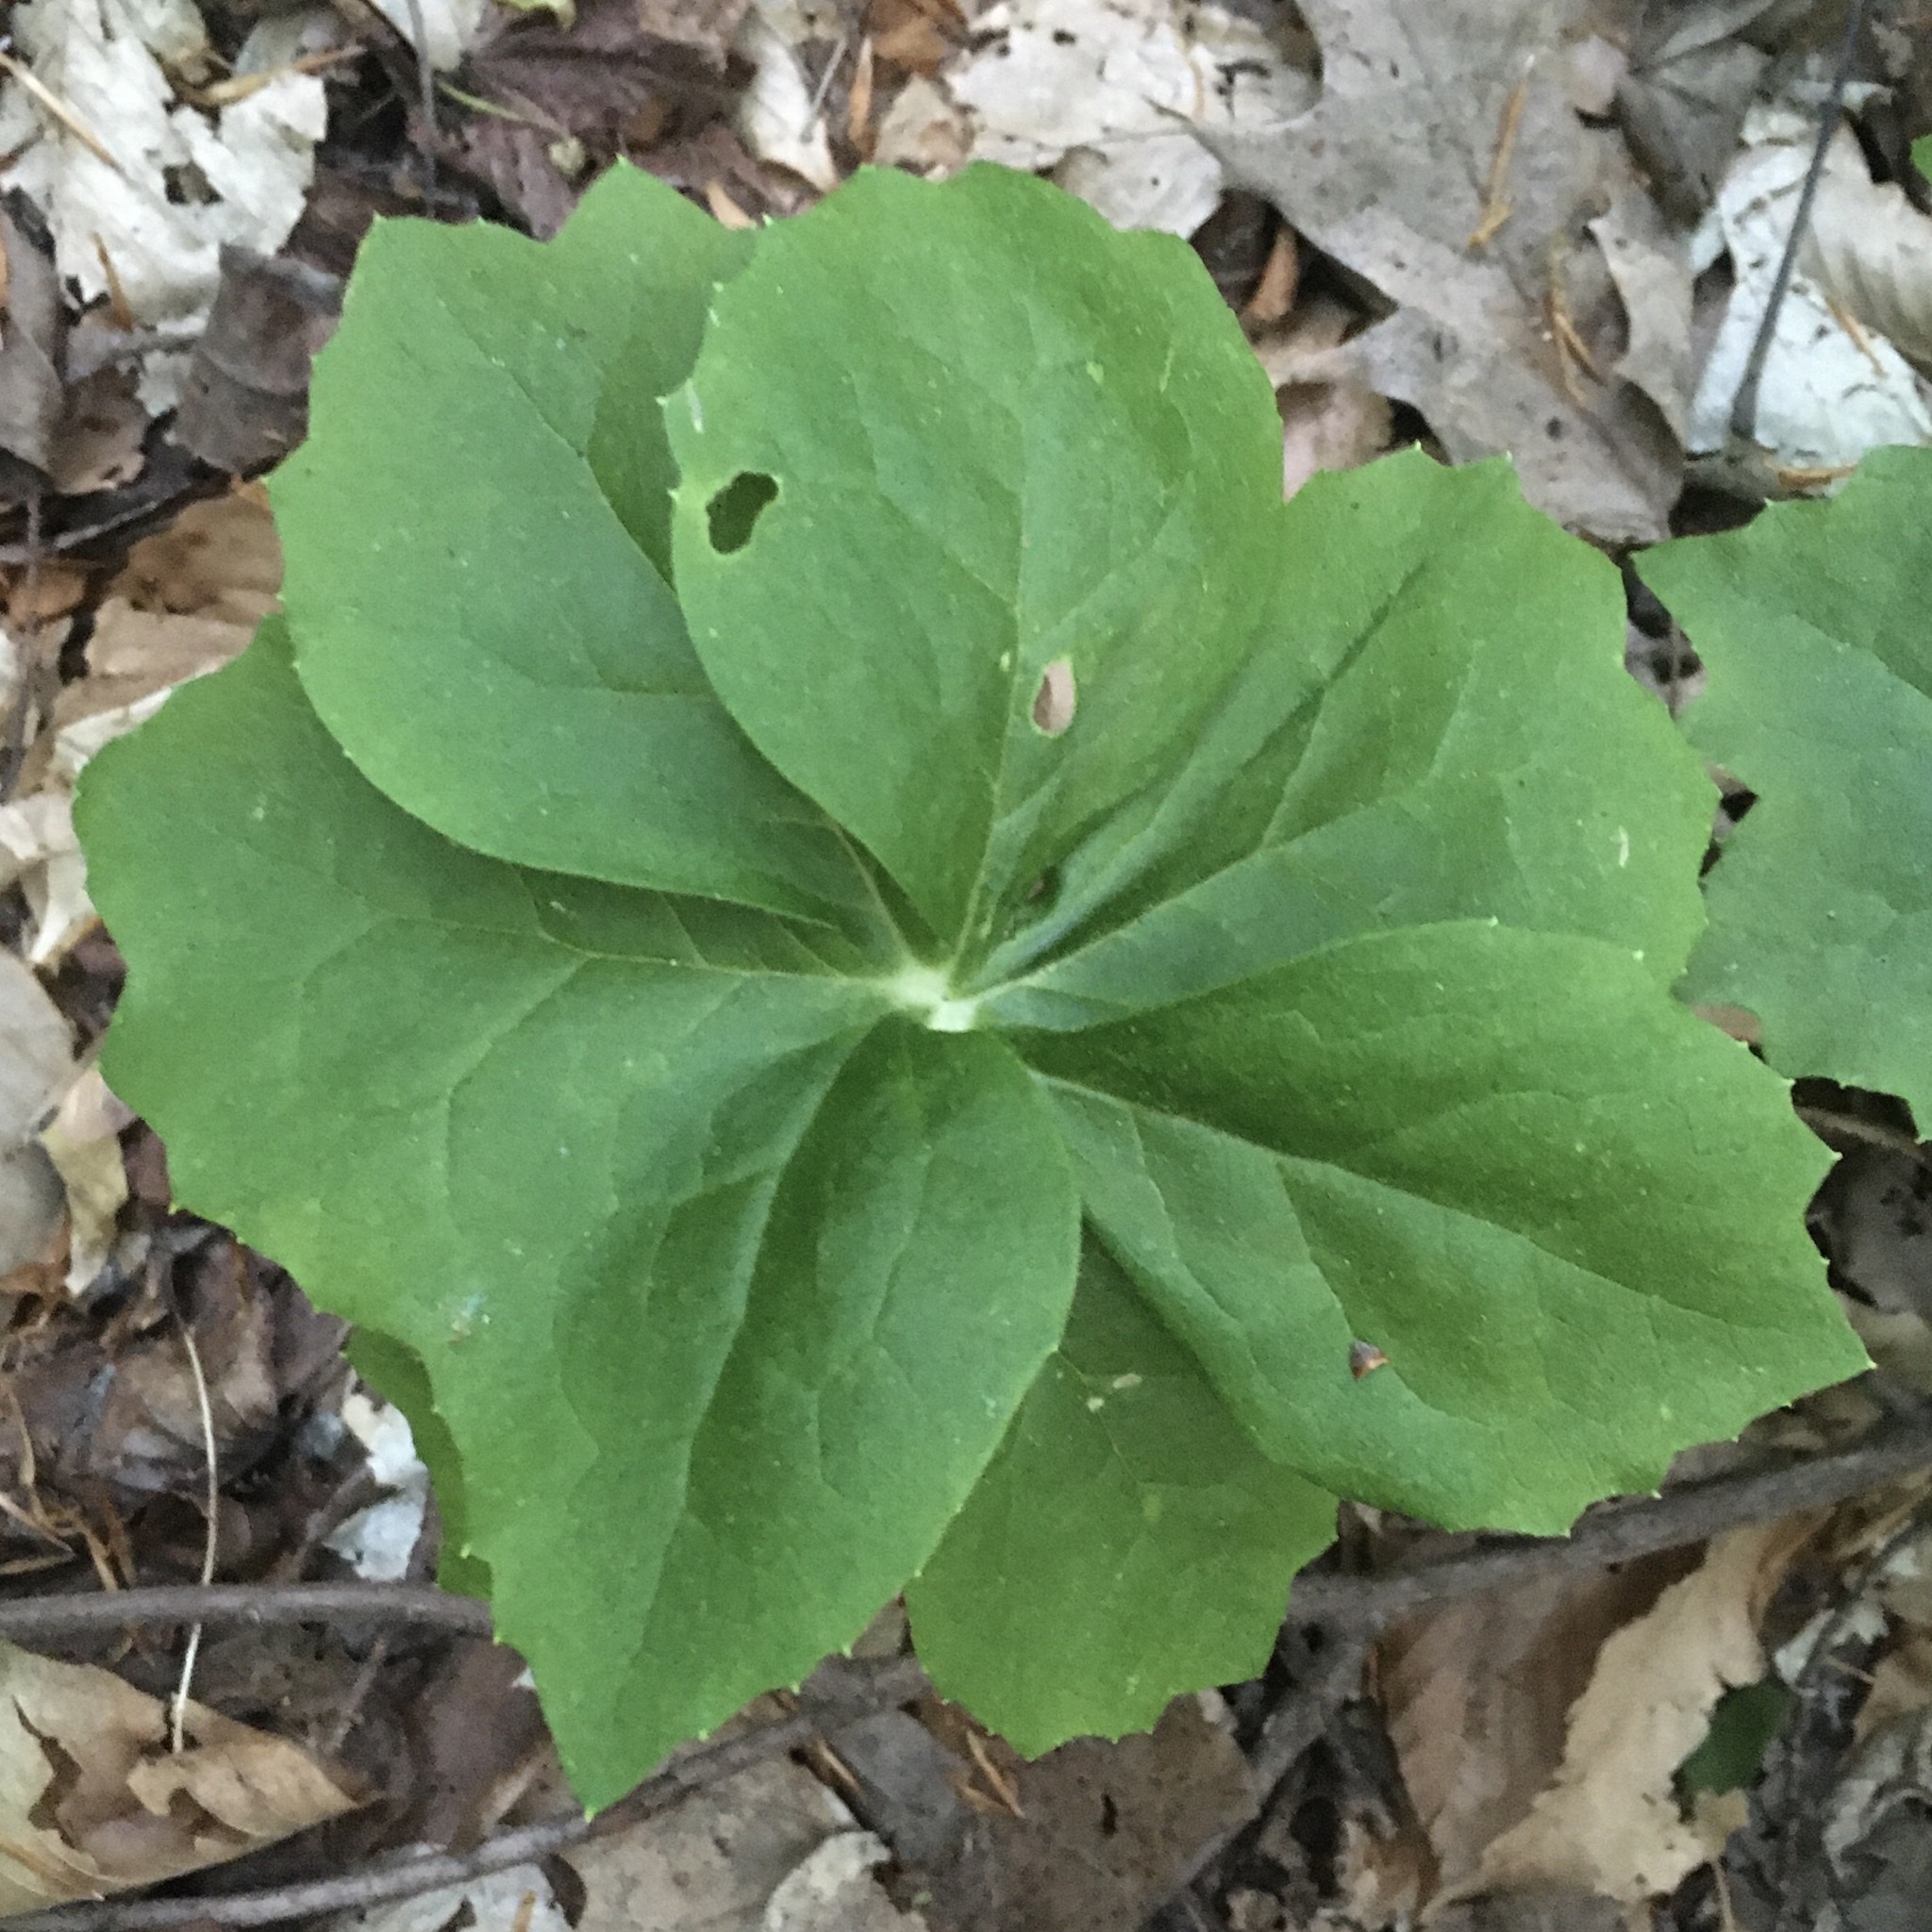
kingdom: Plantae
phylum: Tracheophyta
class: Magnoliopsida
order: Ranunculales
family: Berberidaceae
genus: Podophyllum
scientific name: Podophyllum peltatum
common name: Wild mandrake
